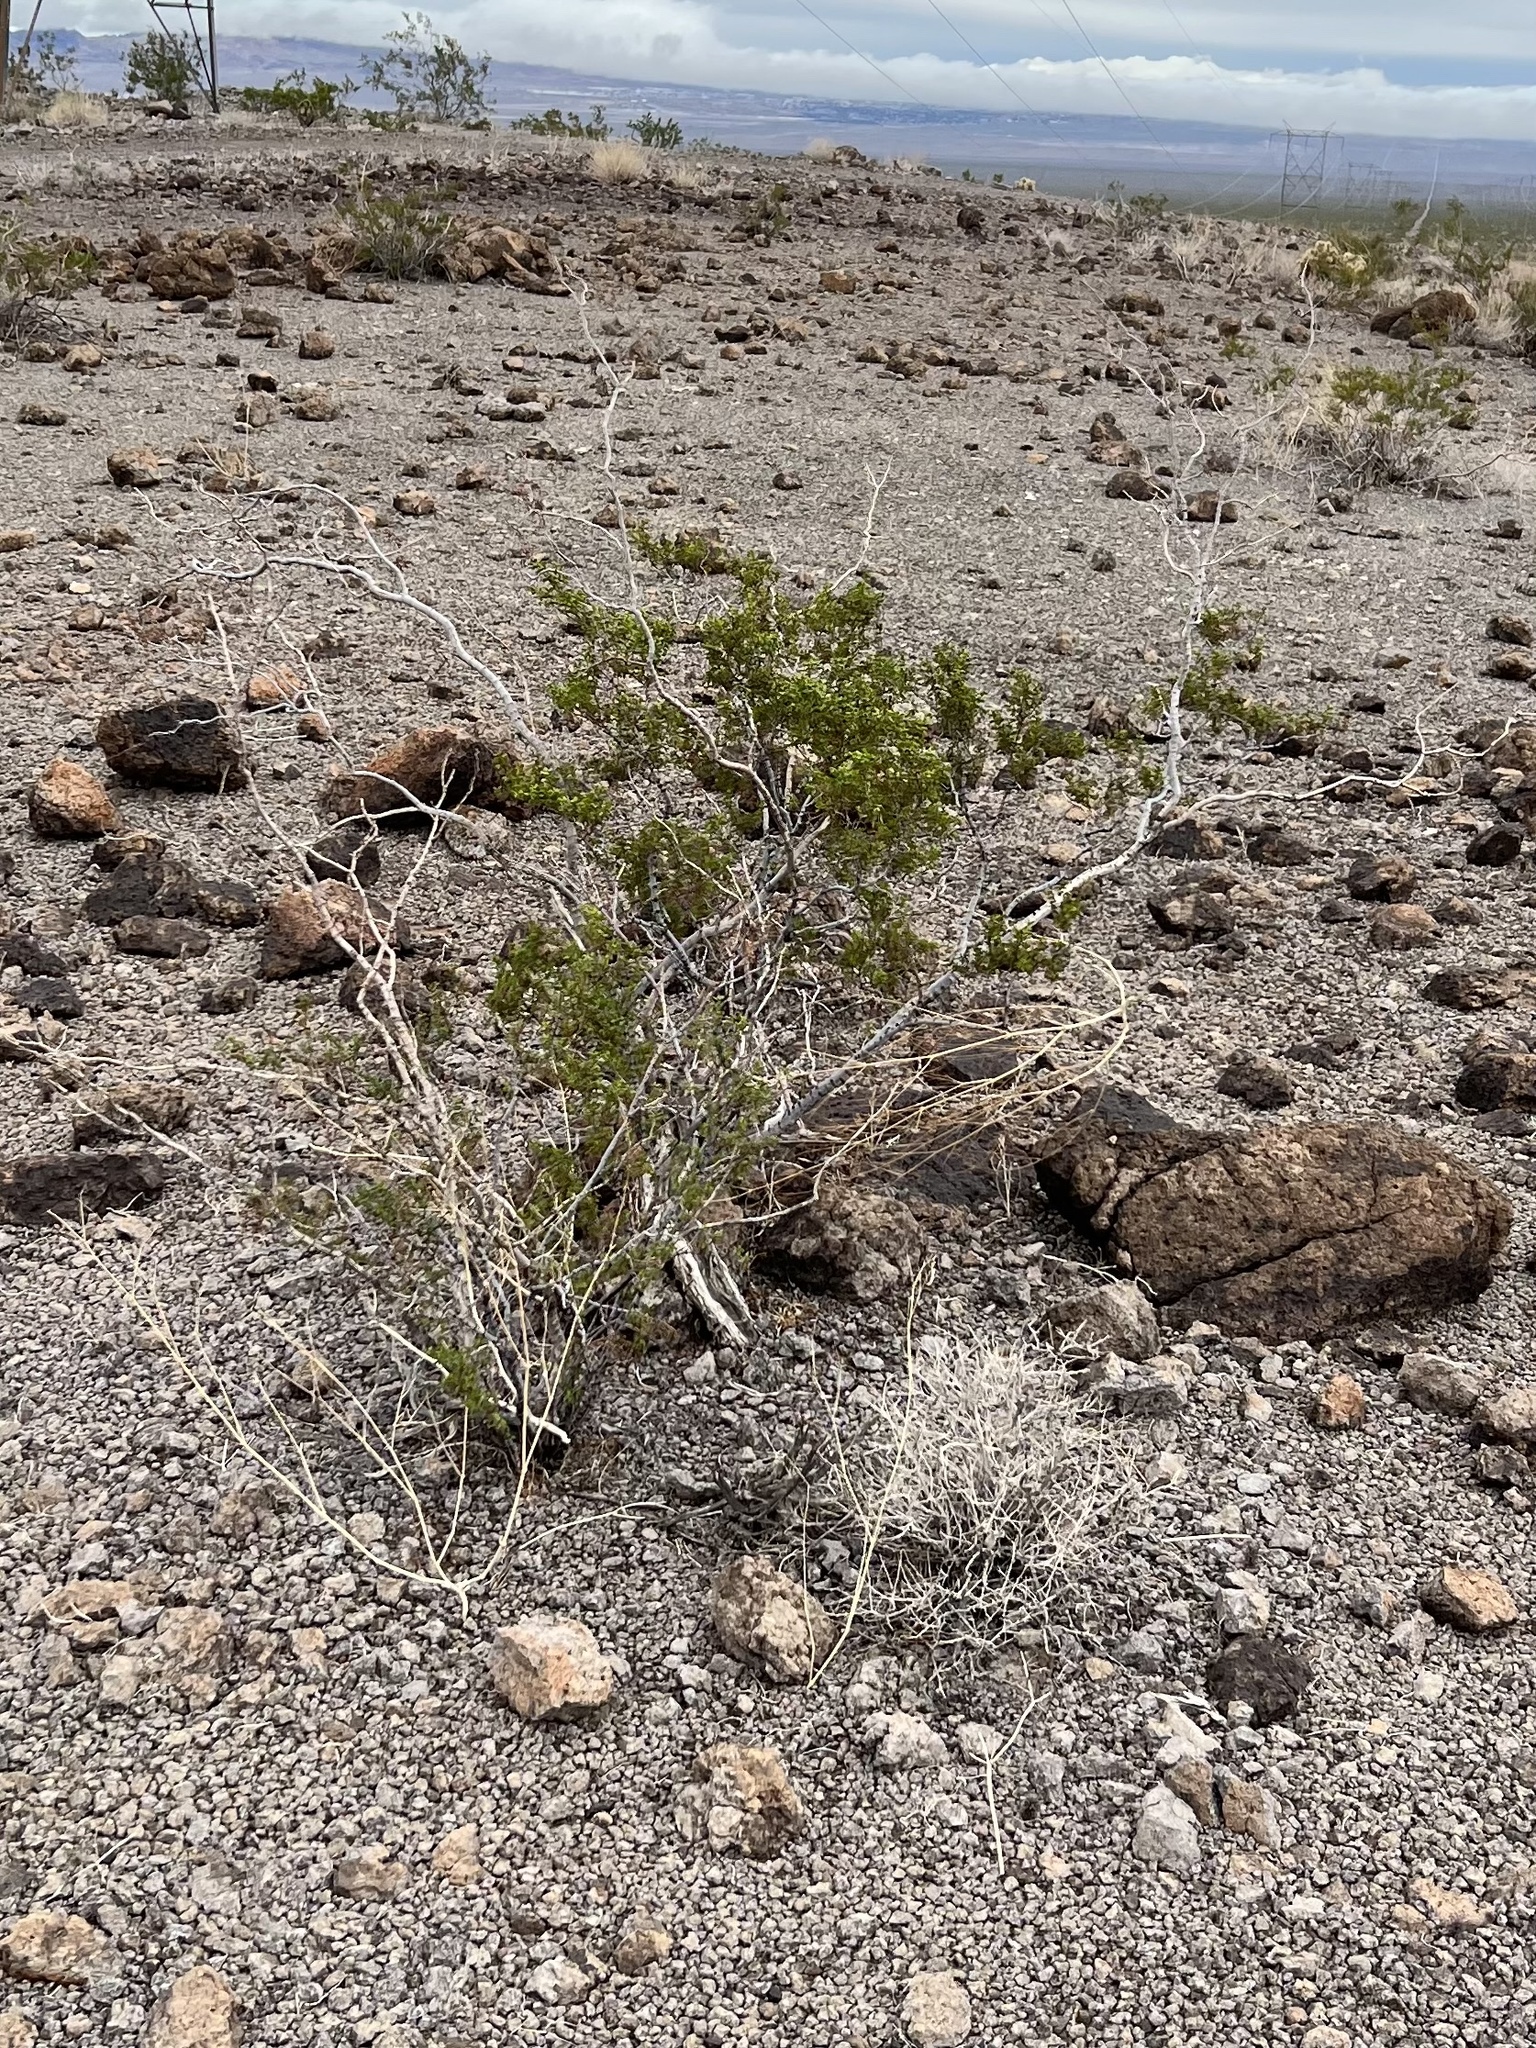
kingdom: Plantae
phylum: Tracheophyta
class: Magnoliopsida
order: Zygophyllales
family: Zygophyllaceae
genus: Larrea
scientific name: Larrea tridentata
